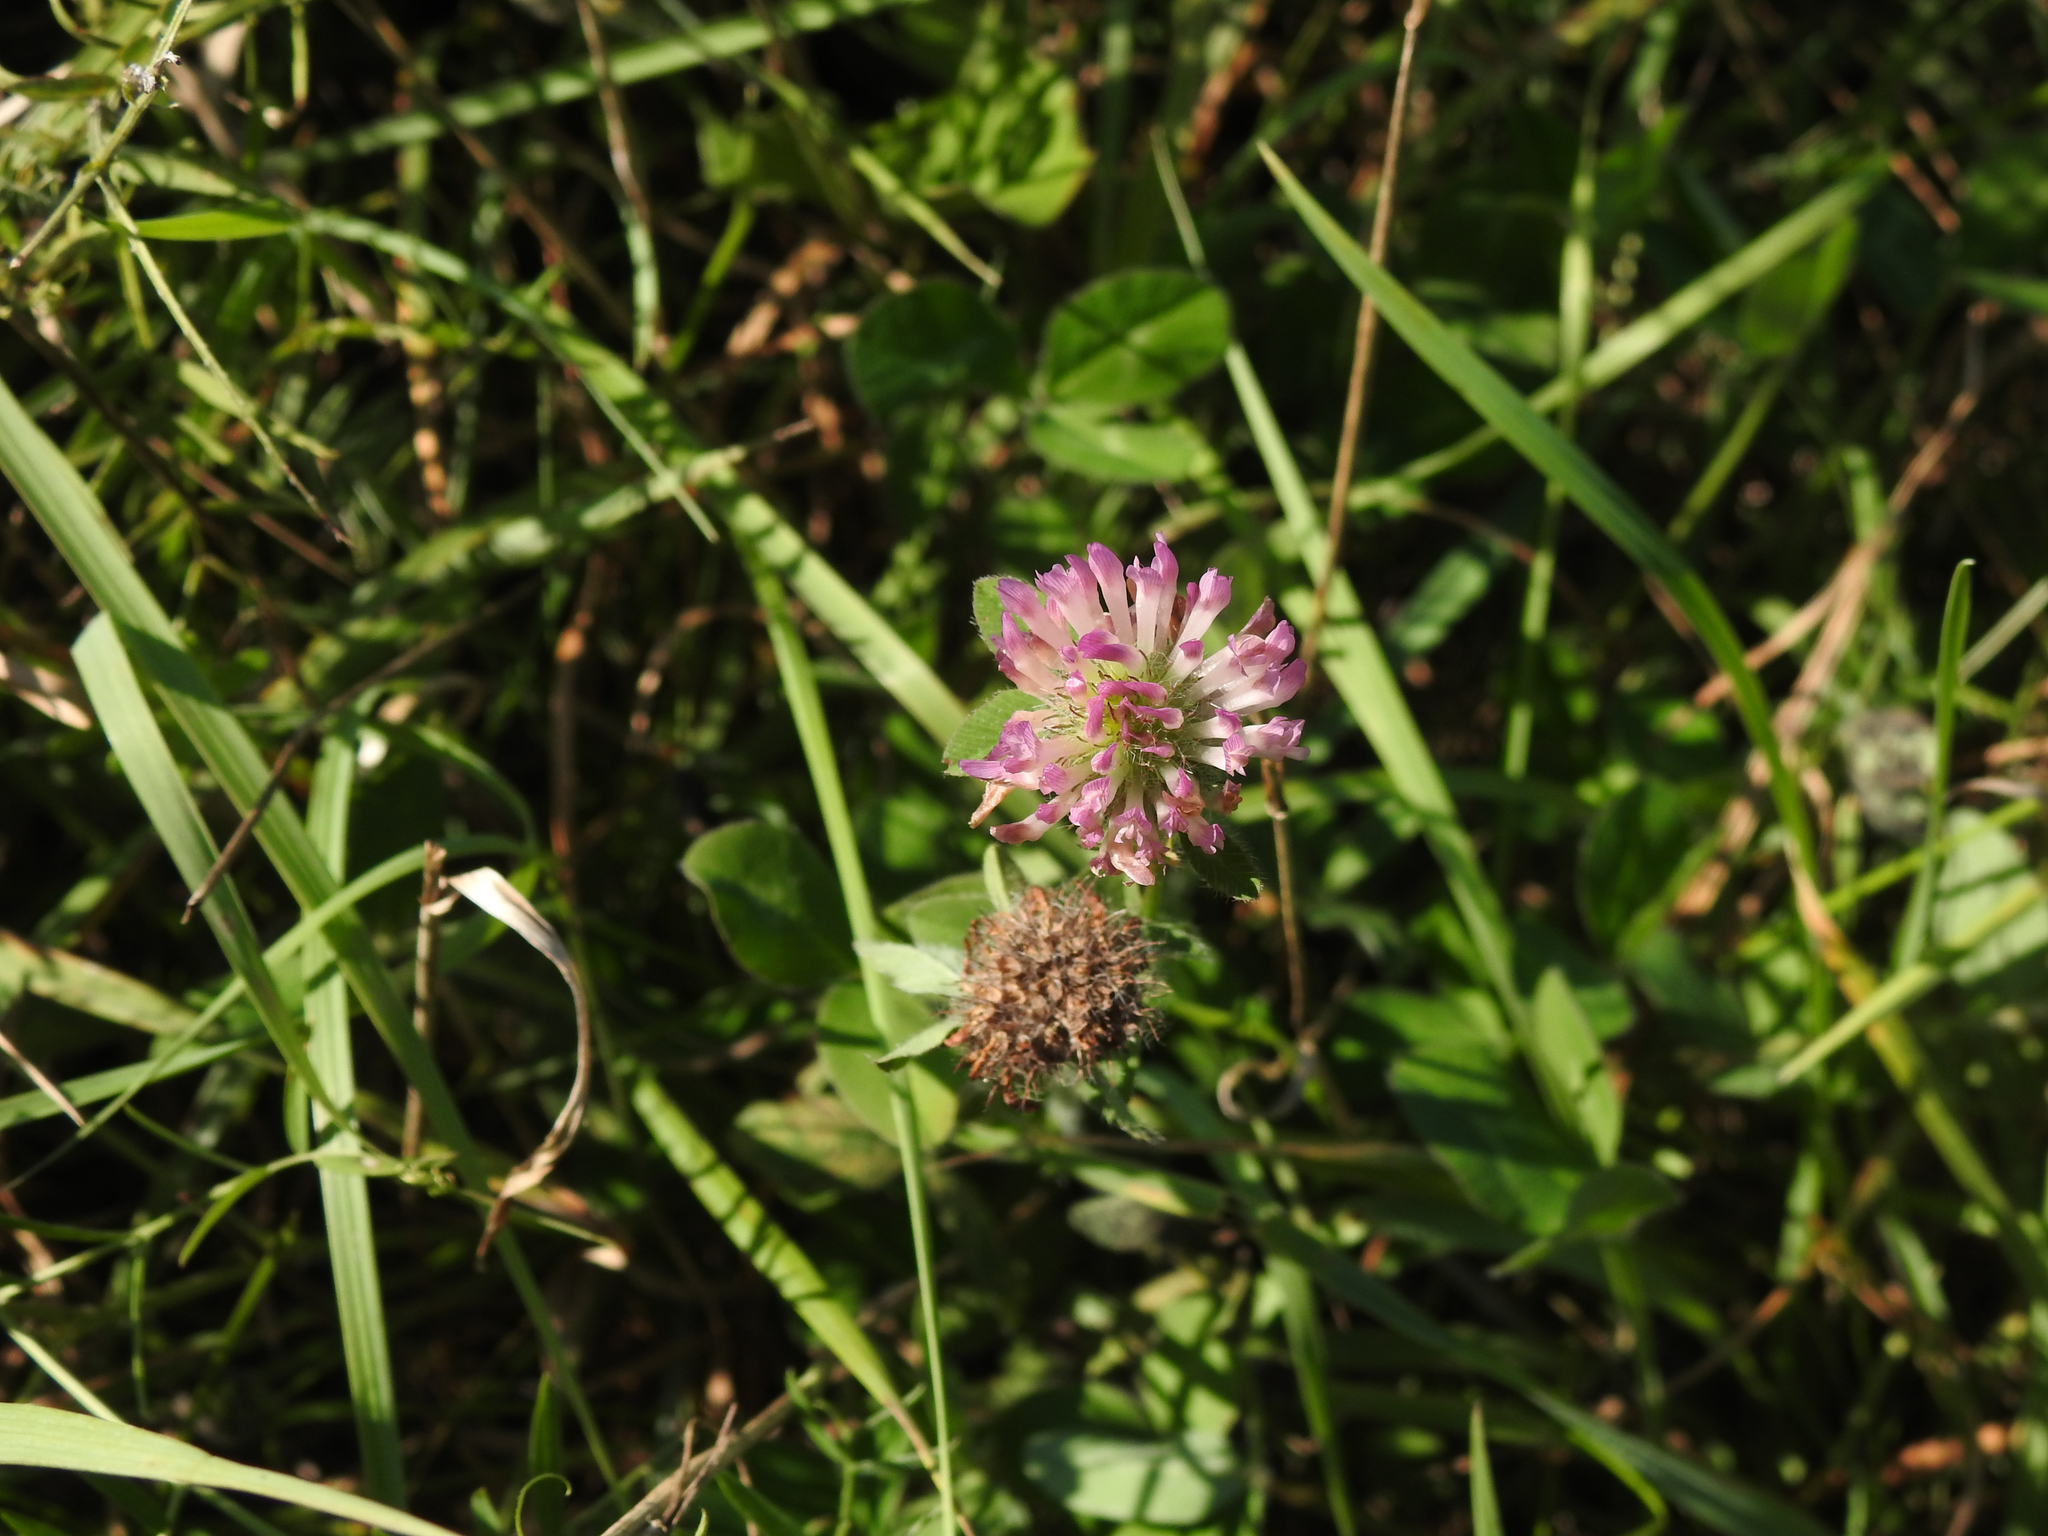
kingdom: Plantae
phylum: Tracheophyta
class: Magnoliopsida
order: Fabales
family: Fabaceae
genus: Trifolium
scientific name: Trifolium pratense
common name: Red clover
